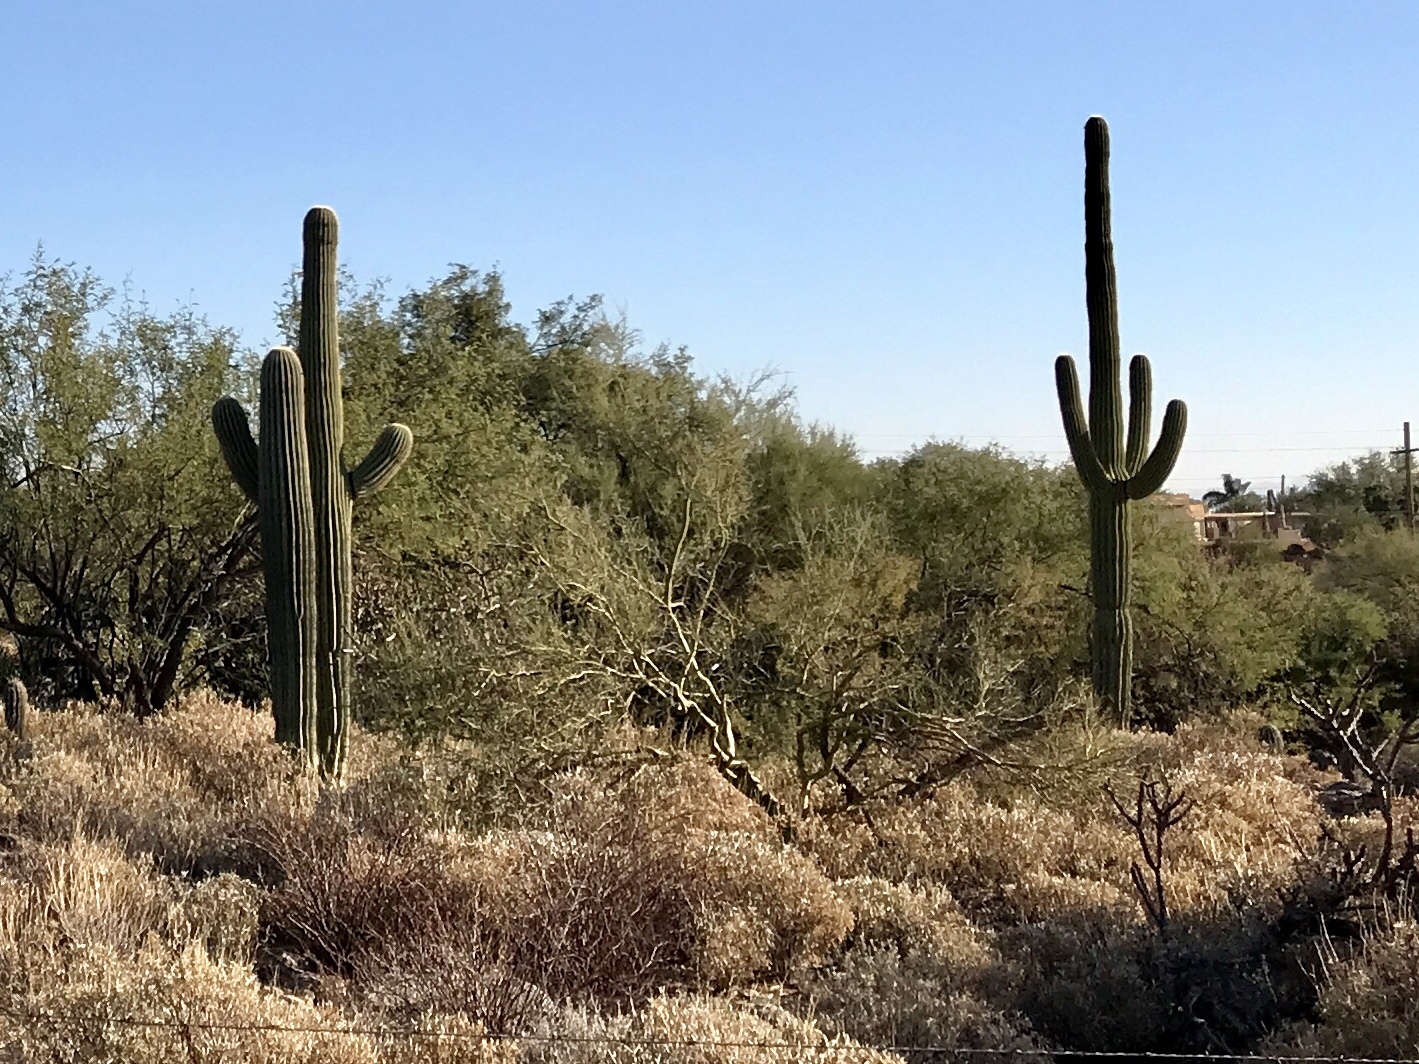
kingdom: Plantae
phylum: Tracheophyta
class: Magnoliopsida
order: Caryophyllales
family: Cactaceae
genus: Carnegiea
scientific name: Carnegiea gigantea
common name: Saguaro
